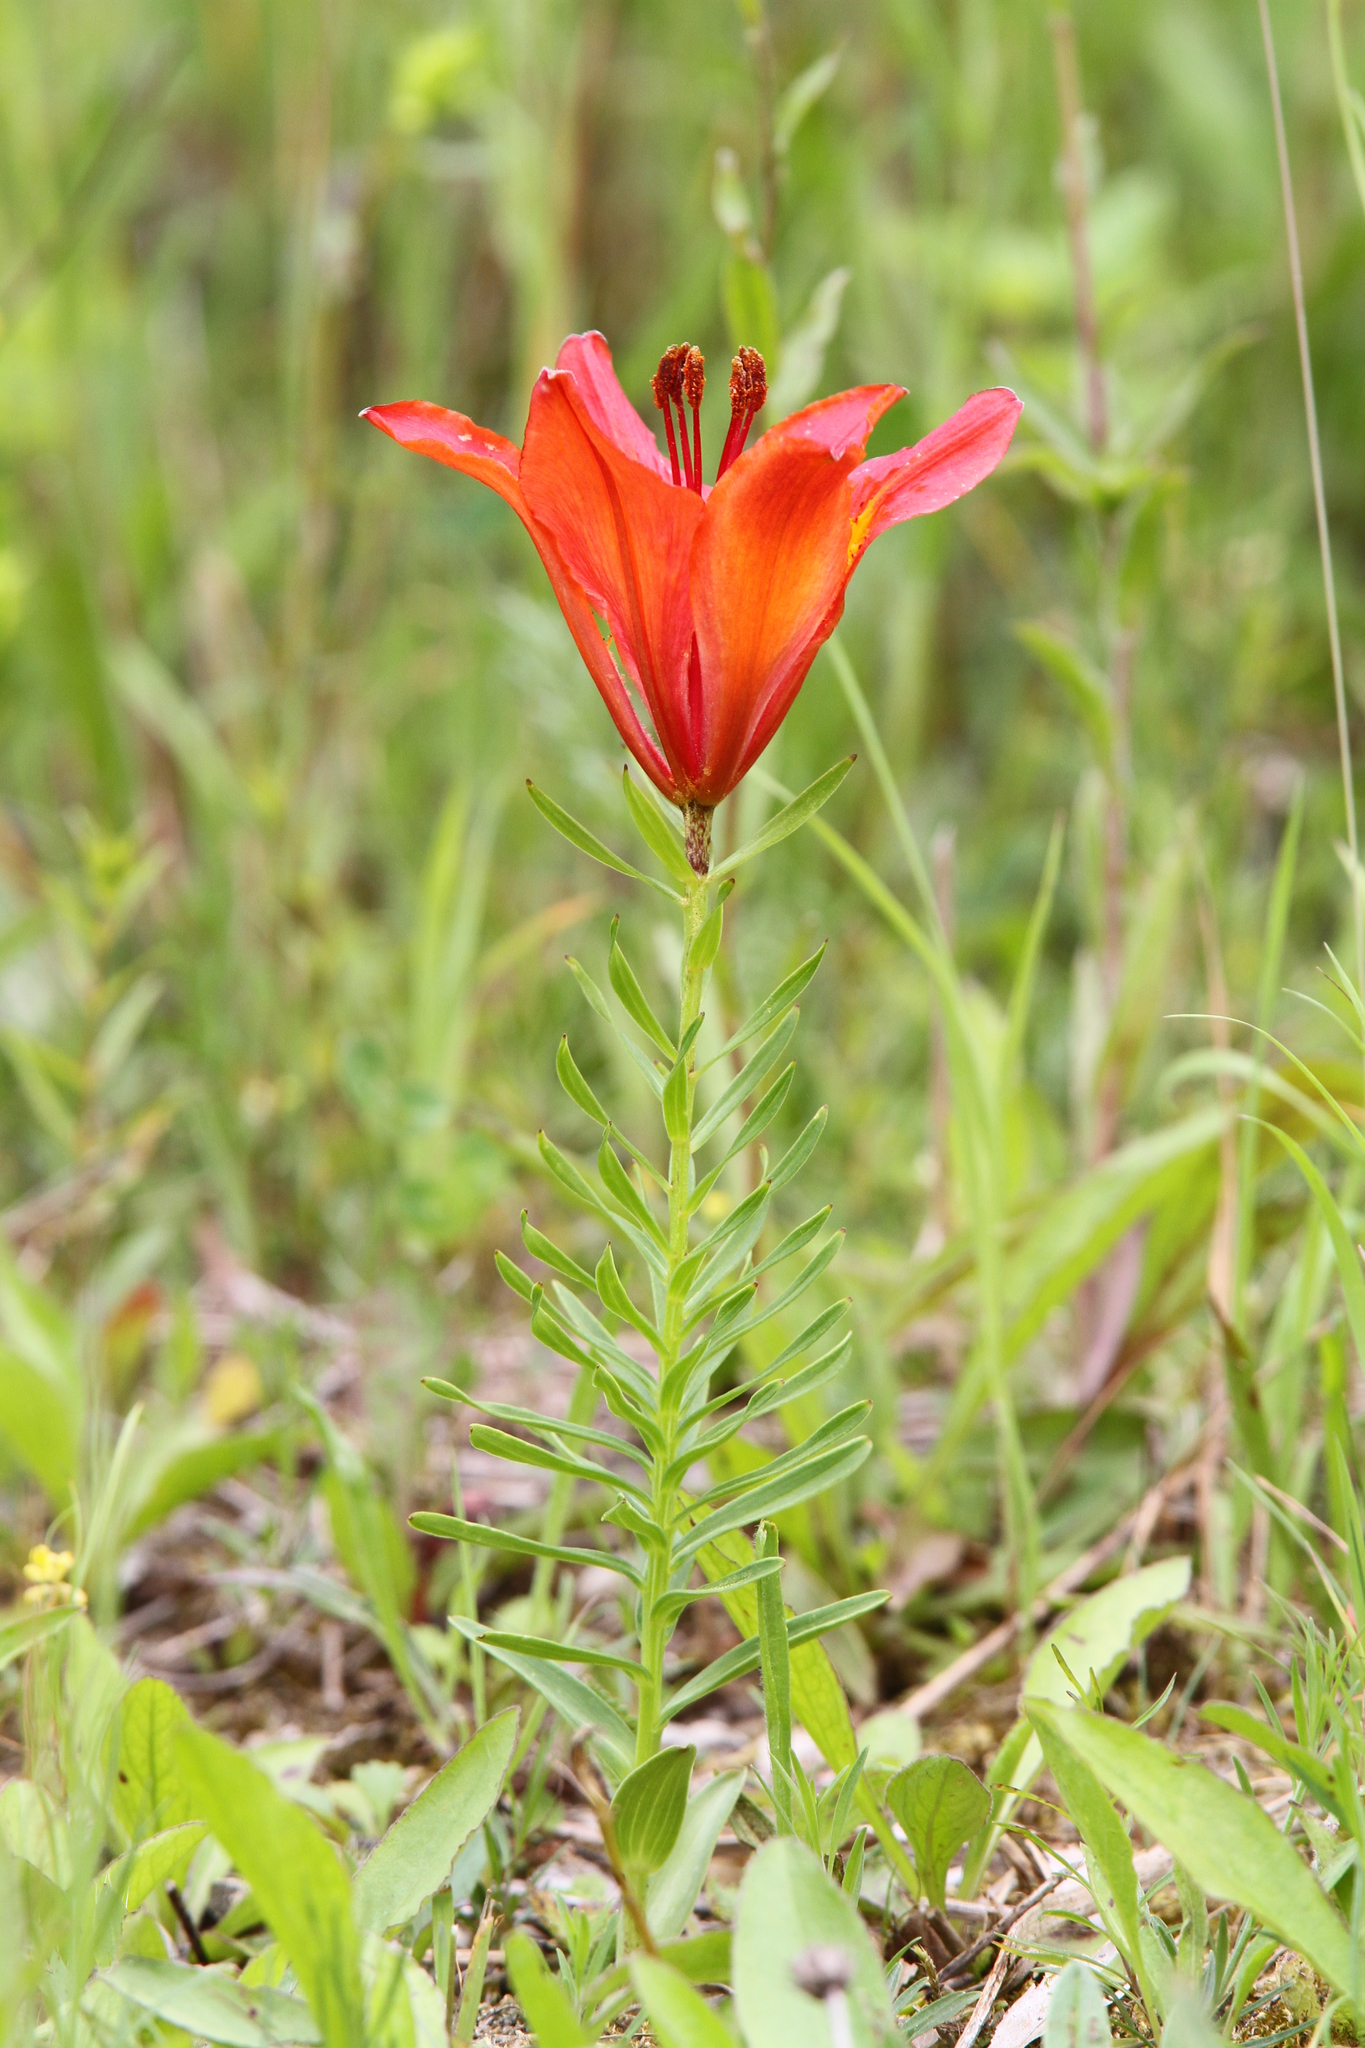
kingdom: Plantae
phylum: Tracheophyta
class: Liliopsida
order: Liliales
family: Liliaceae
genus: Lilium
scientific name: Lilium bulbiferum
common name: Orange lily
